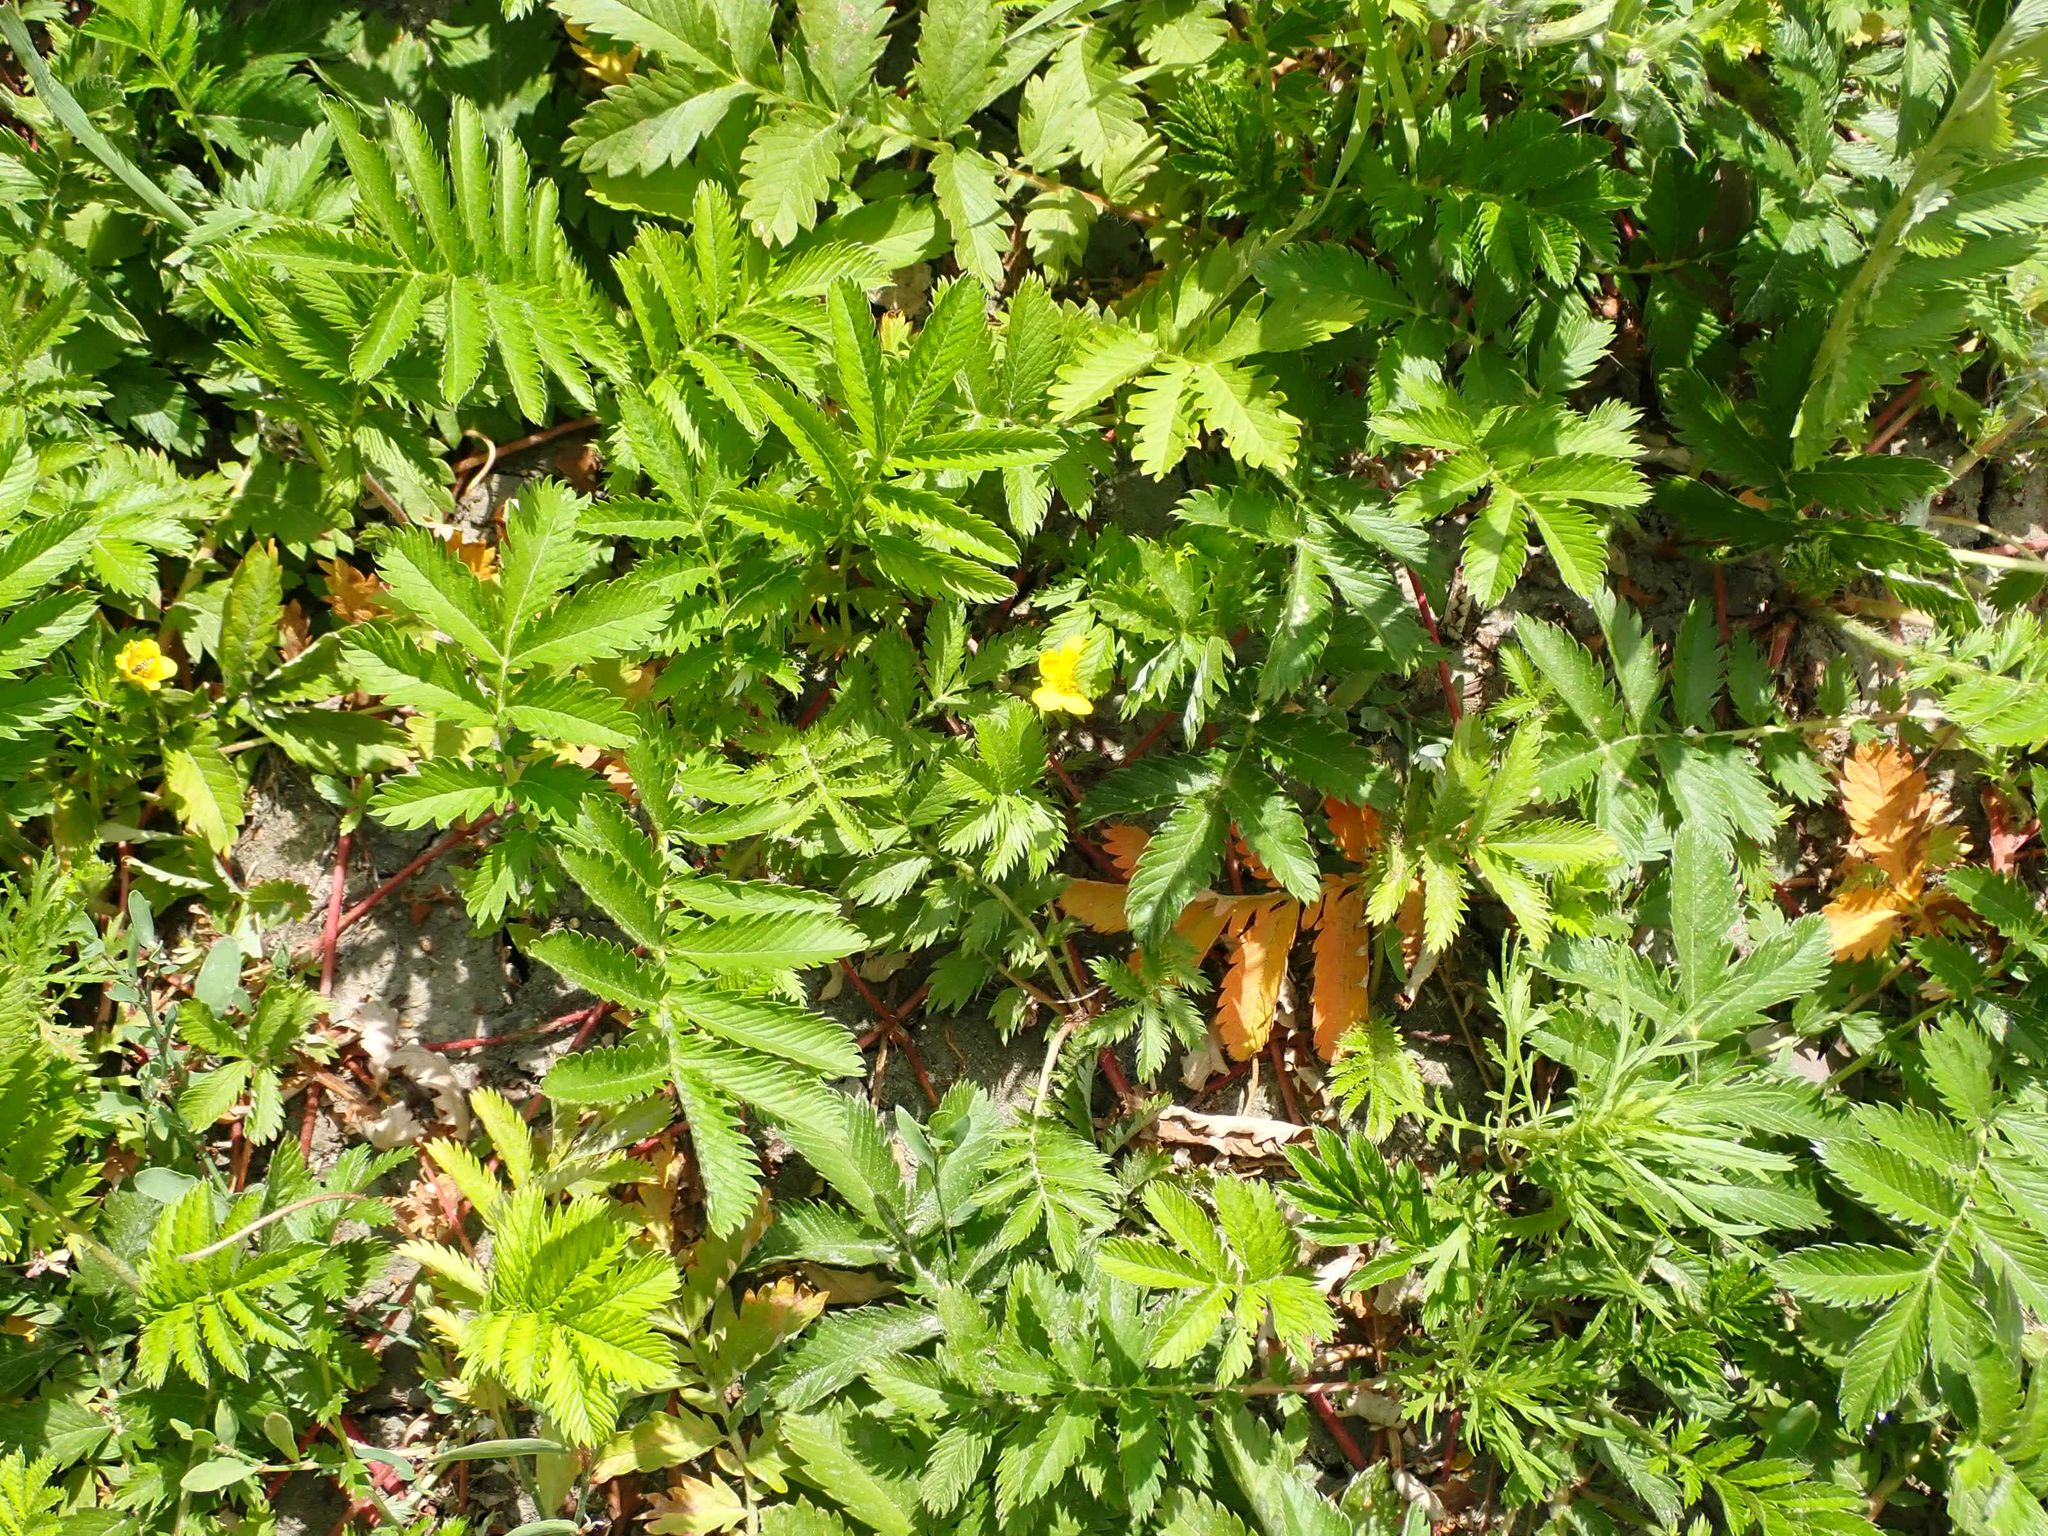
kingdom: Plantae
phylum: Tracheophyta
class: Magnoliopsida
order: Rosales
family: Rosaceae
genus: Argentina
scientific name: Argentina anserina
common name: Common silverweed
